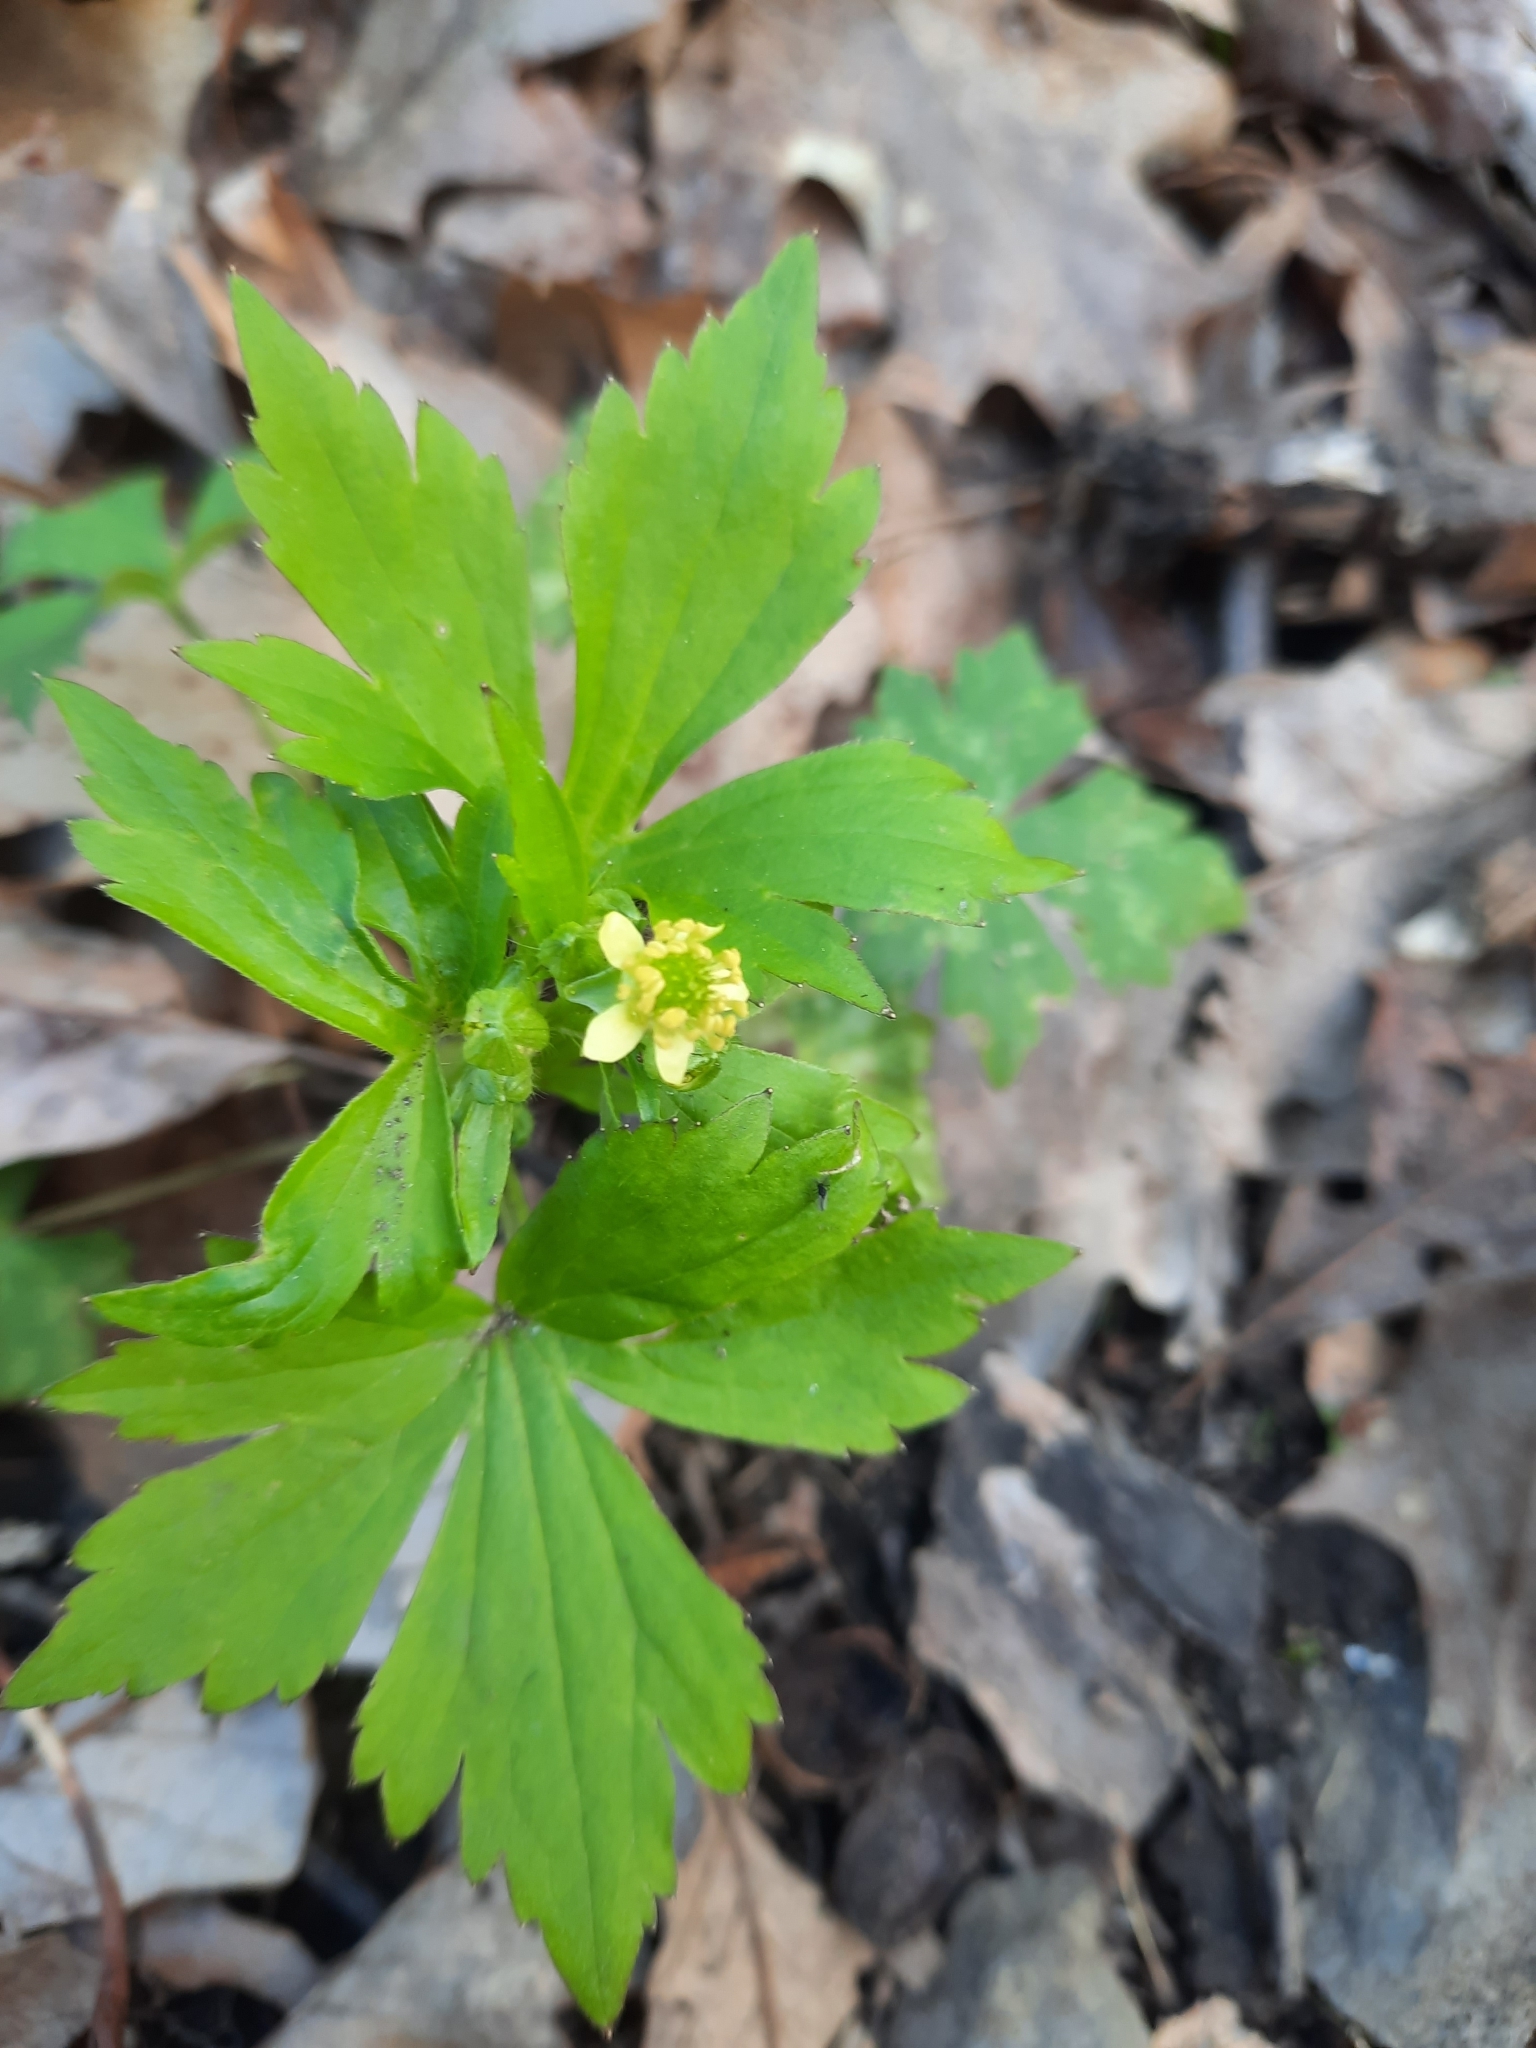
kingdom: Plantae
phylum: Tracheophyta
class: Magnoliopsida
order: Ranunculales
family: Ranunculaceae
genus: Ranunculus
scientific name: Ranunculus recurvatus
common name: Blisterwort
